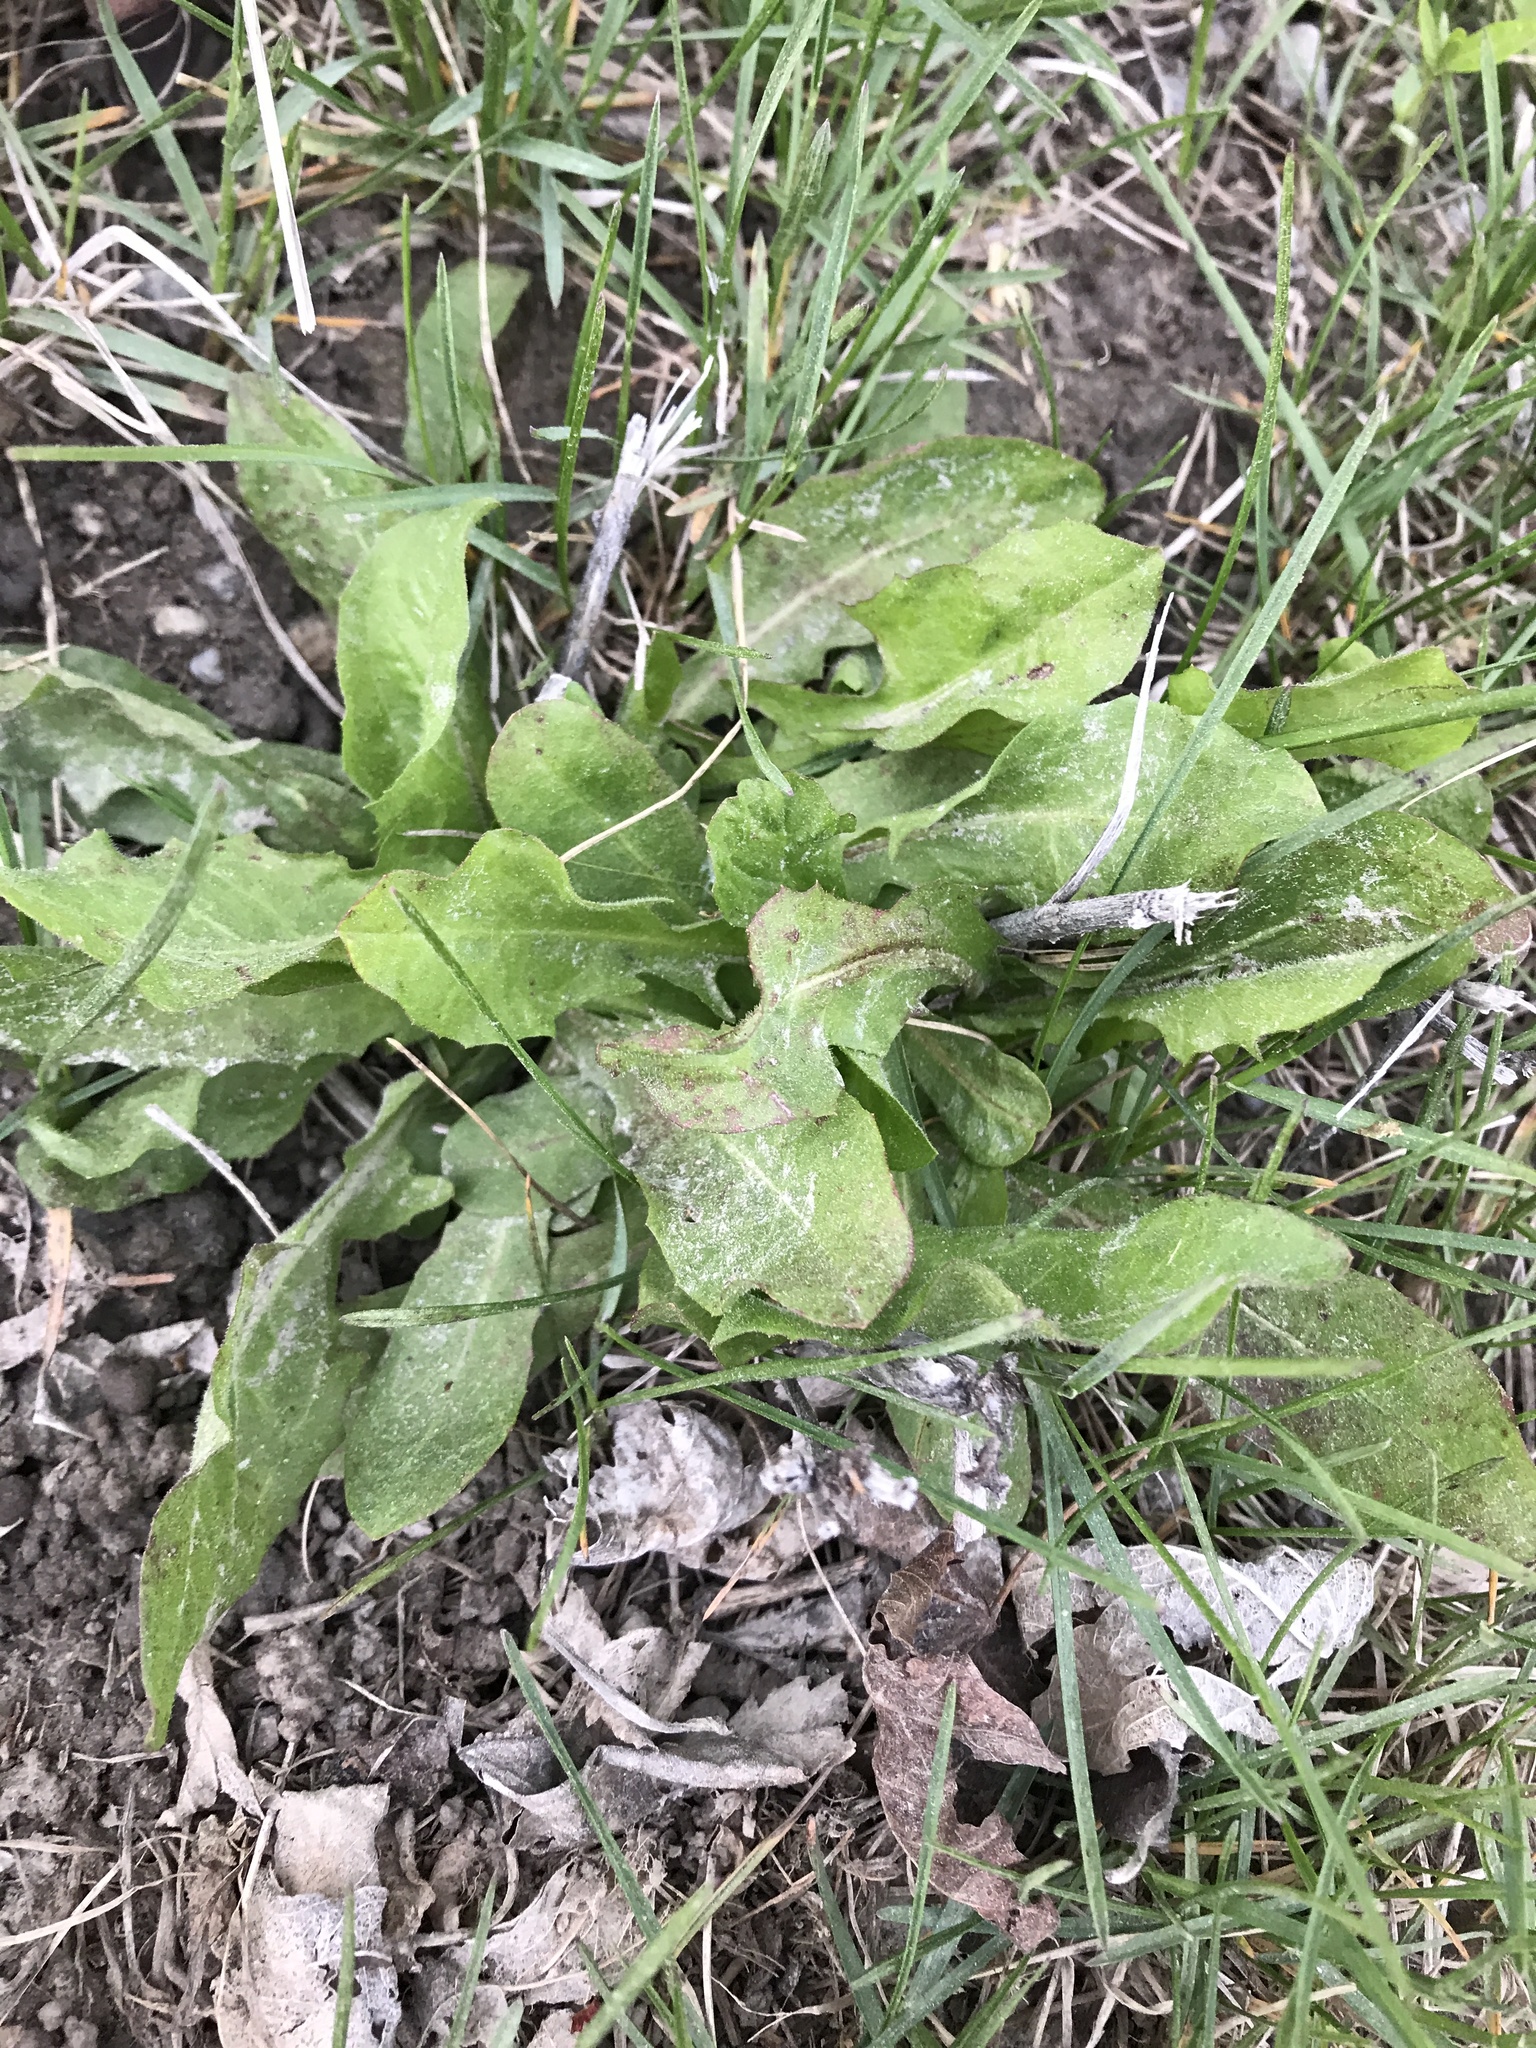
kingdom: Plantae
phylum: Tracheophyta
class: Magnoliopsida
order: Asterales
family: Asteraceae
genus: Taraxacum
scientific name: Taraxacum officinale
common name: Common dandelion
